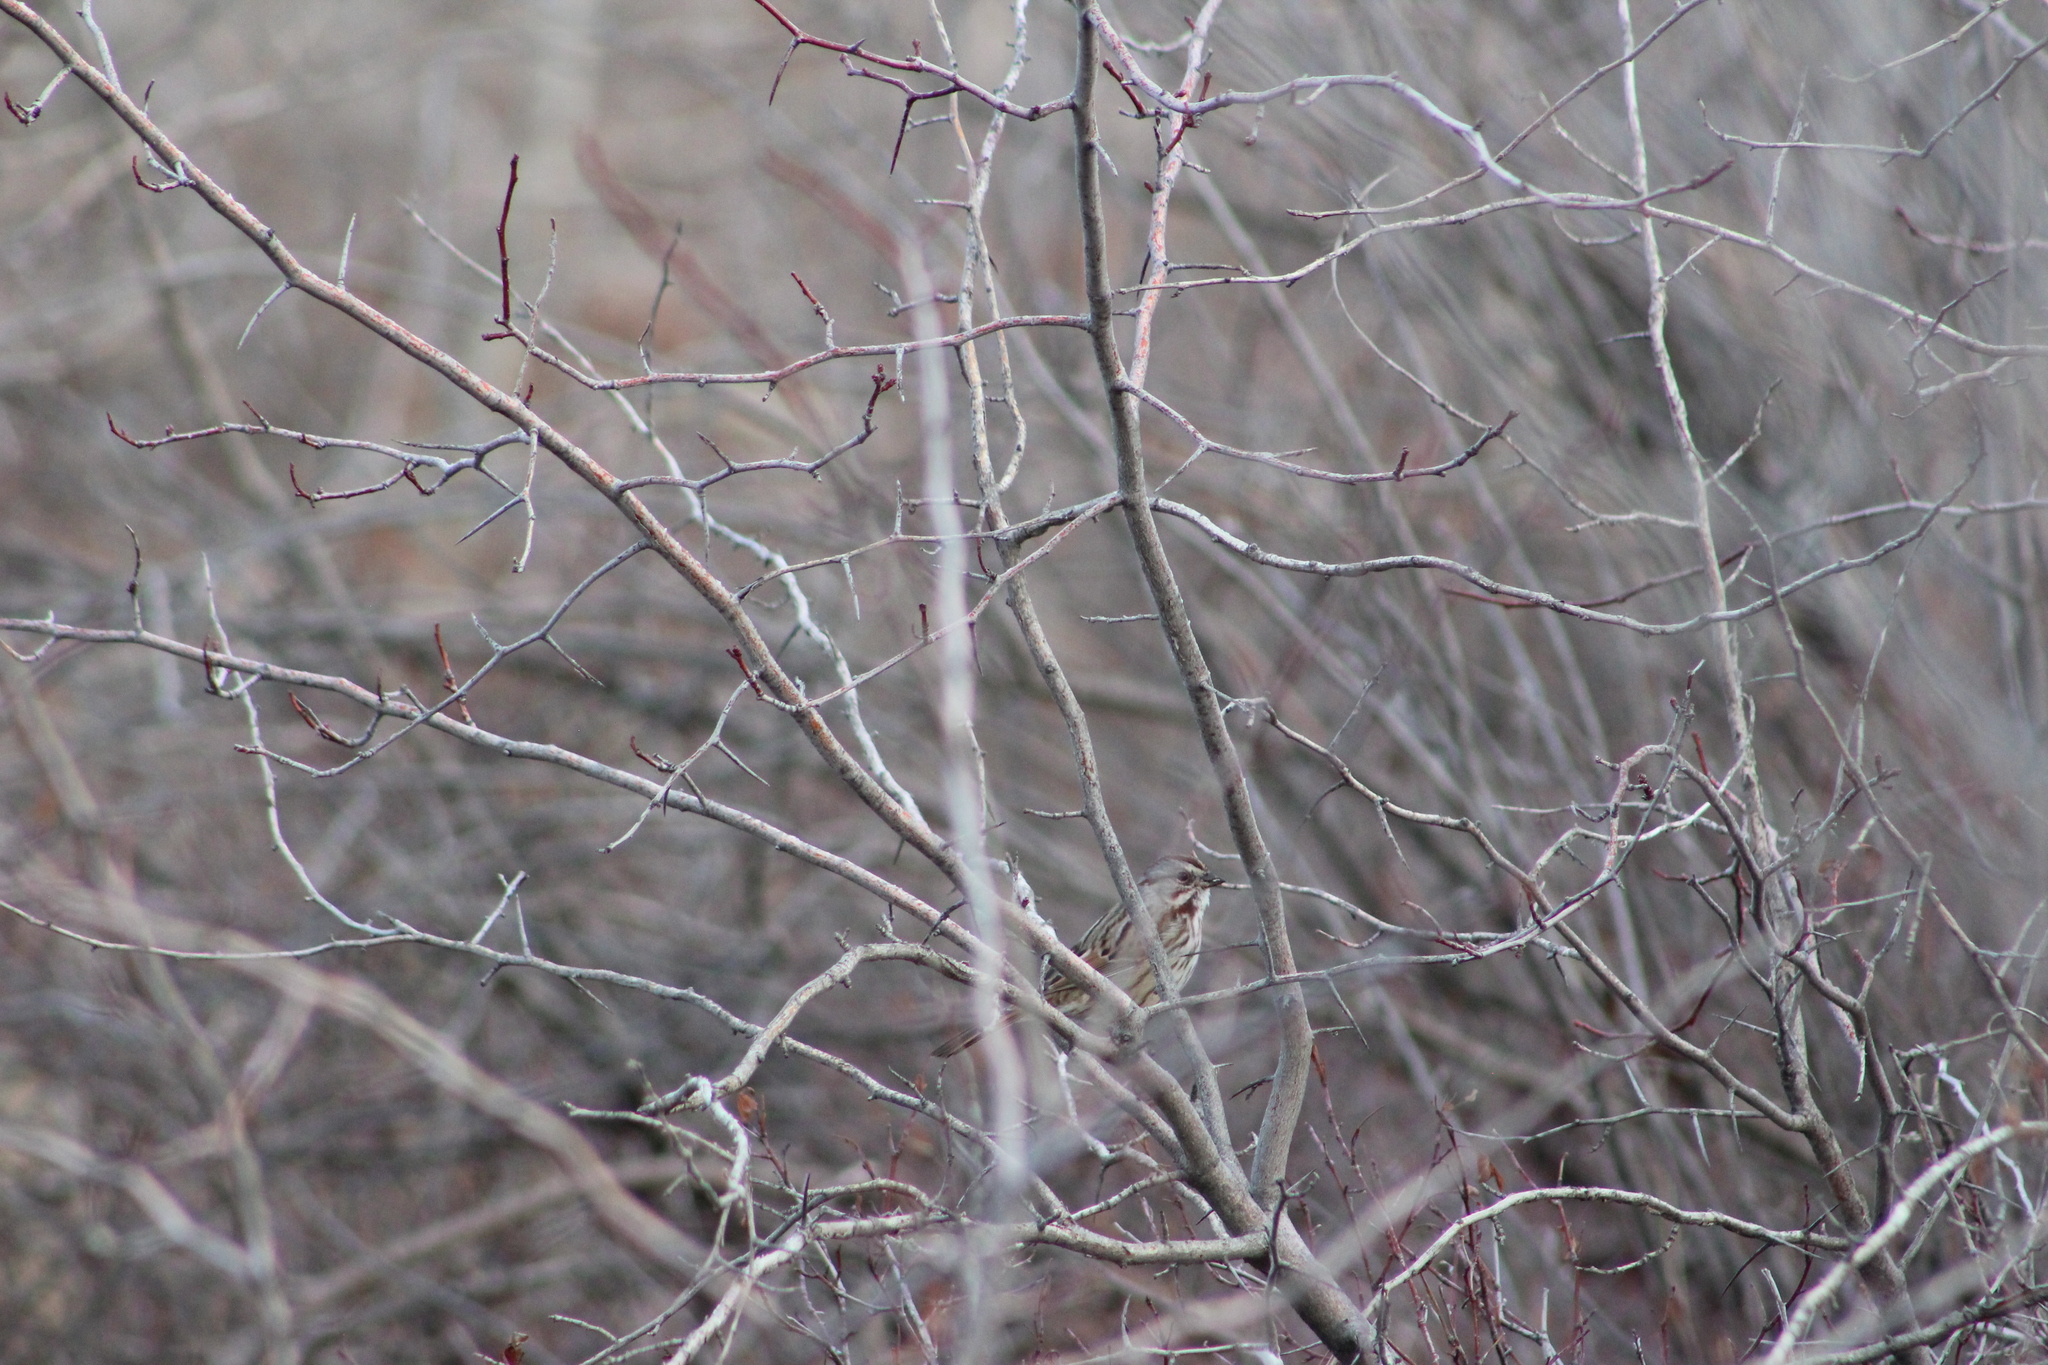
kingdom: Animalia
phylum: Chordata
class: Aves
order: Passeriformes
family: Passerellidae
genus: Melospiza
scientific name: Melospiza melodia
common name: Song sparrow
